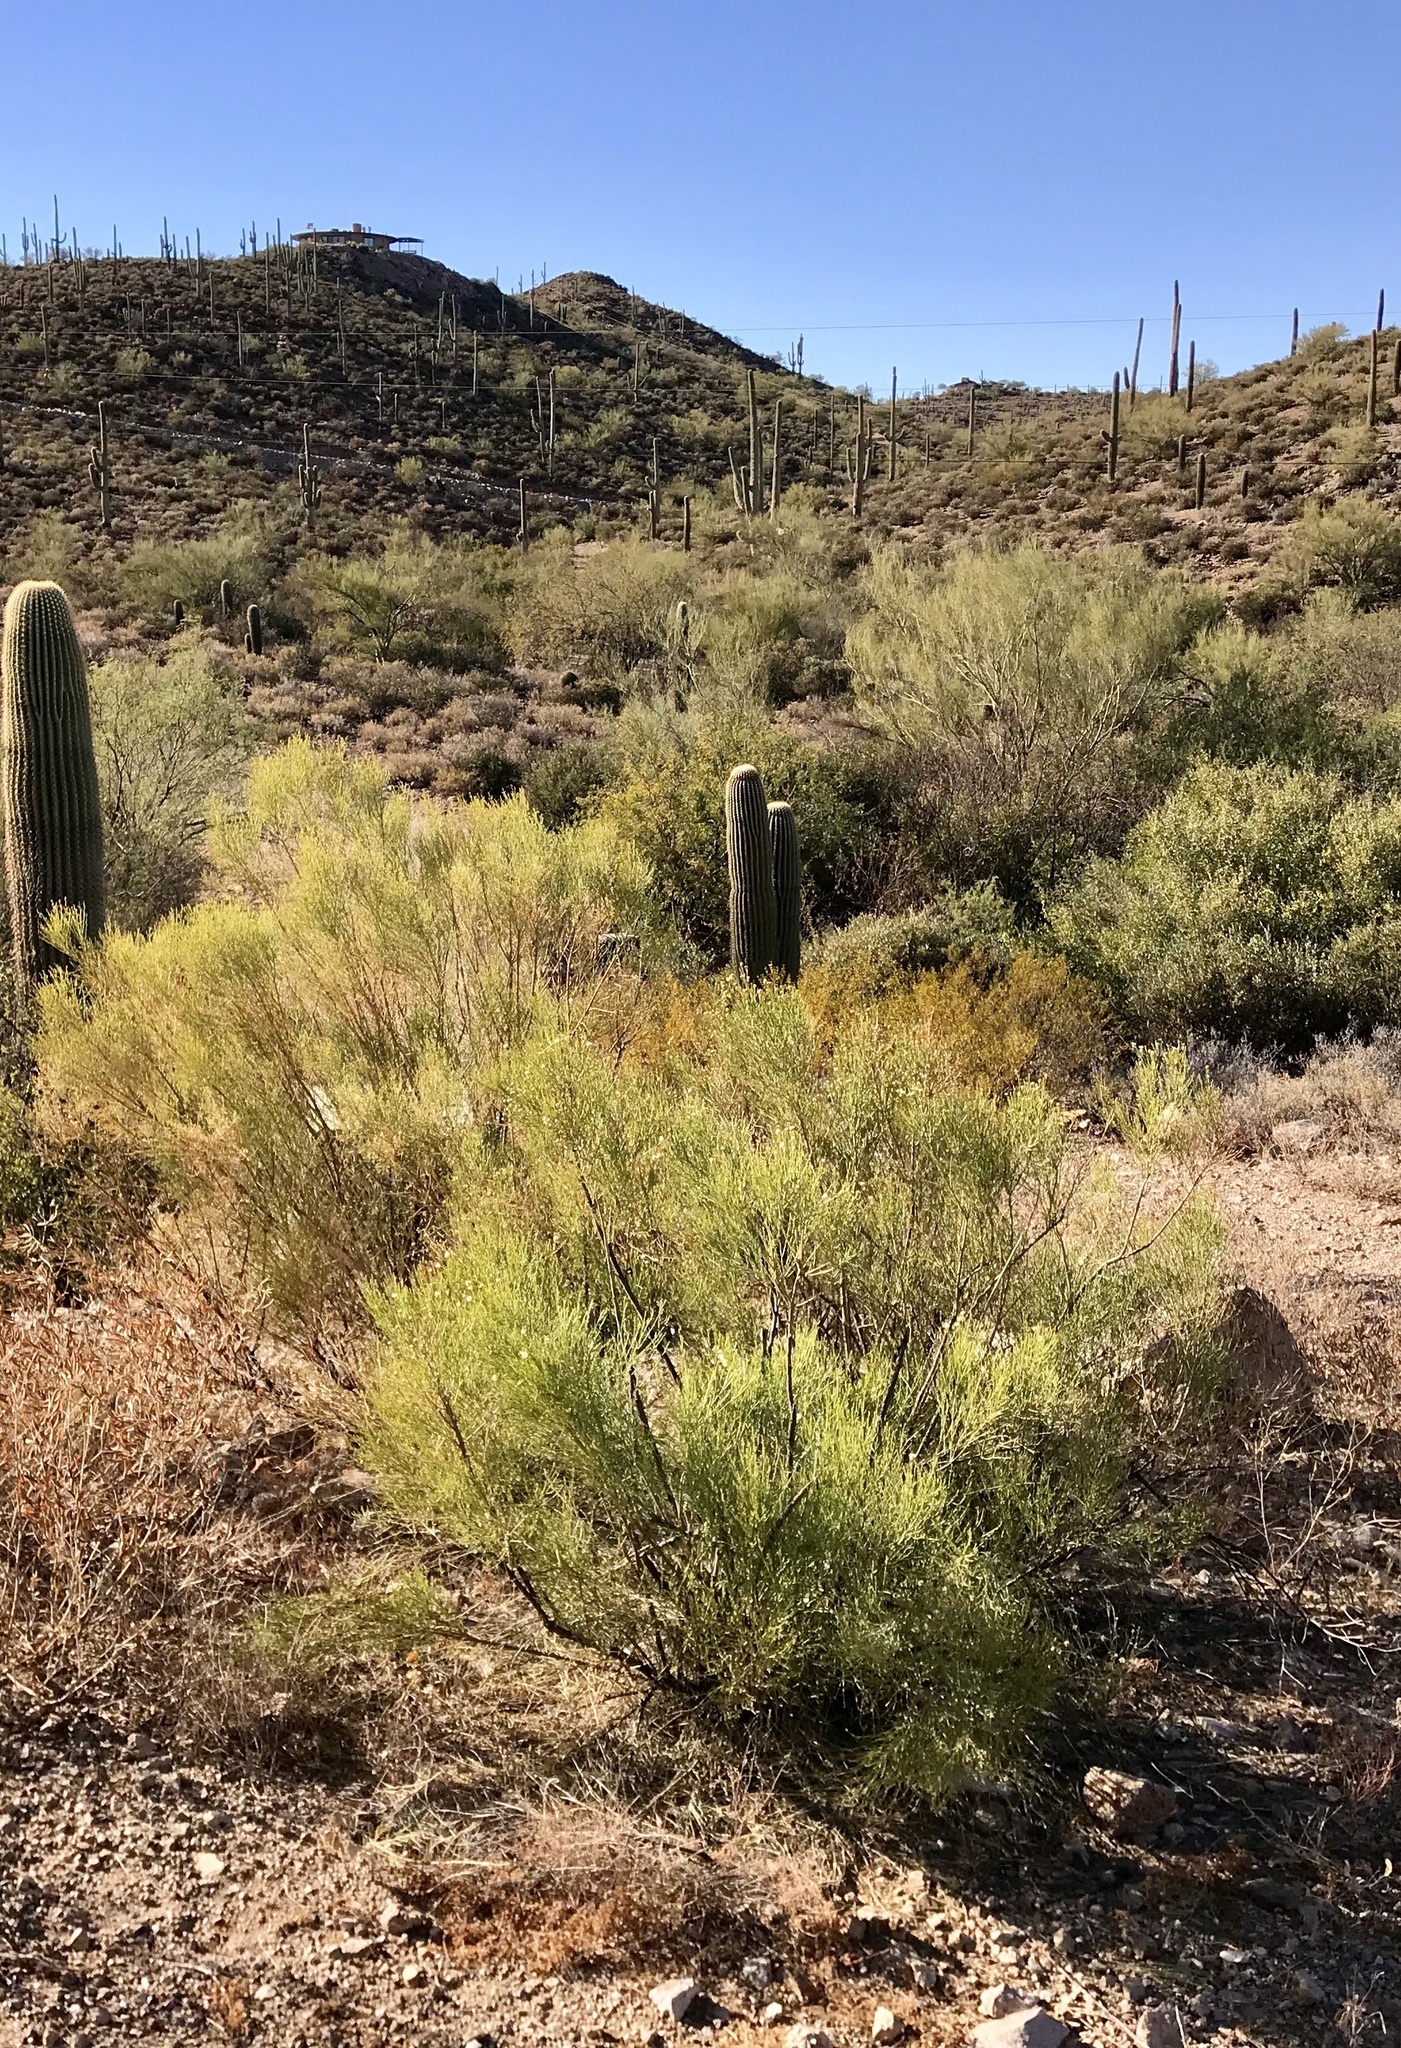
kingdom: Plantae
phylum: Tracheophyta
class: Magnoliopsida
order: Asterales
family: Asteraceae
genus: Baccharis
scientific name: Baccharis sarothroides
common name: Desert-broom
